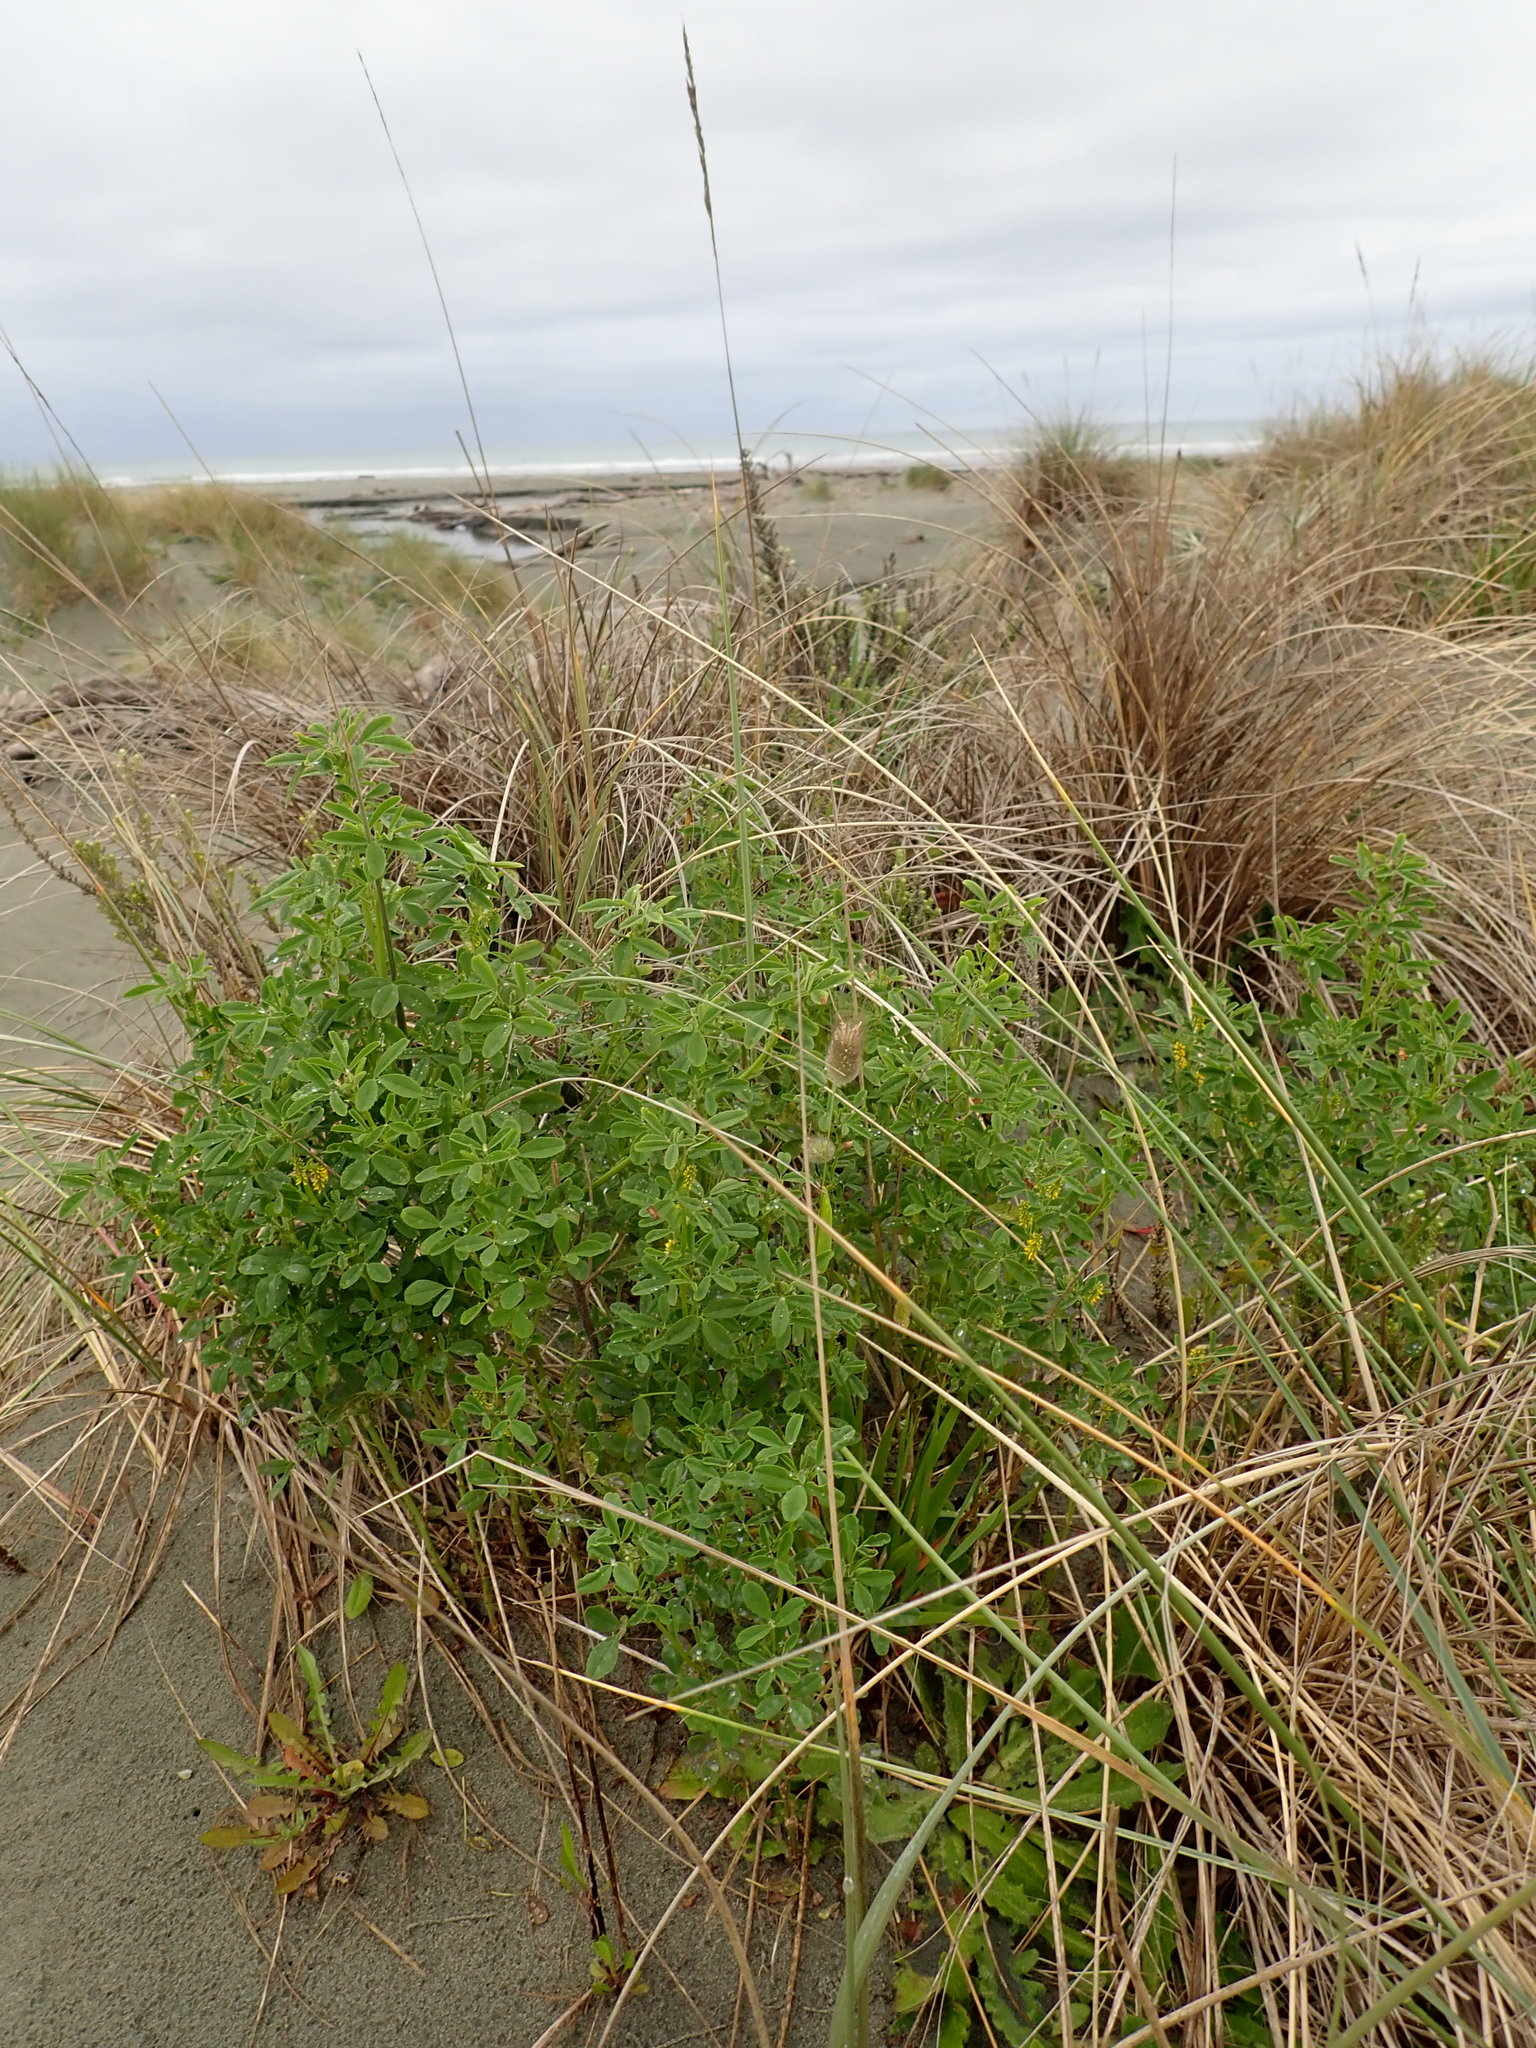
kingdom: Plantae
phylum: Tracheophyta
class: Magnoliopsida
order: Fabales
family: Fabaceae
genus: Melilotus
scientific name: Melilotus indicus
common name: Small melilot
